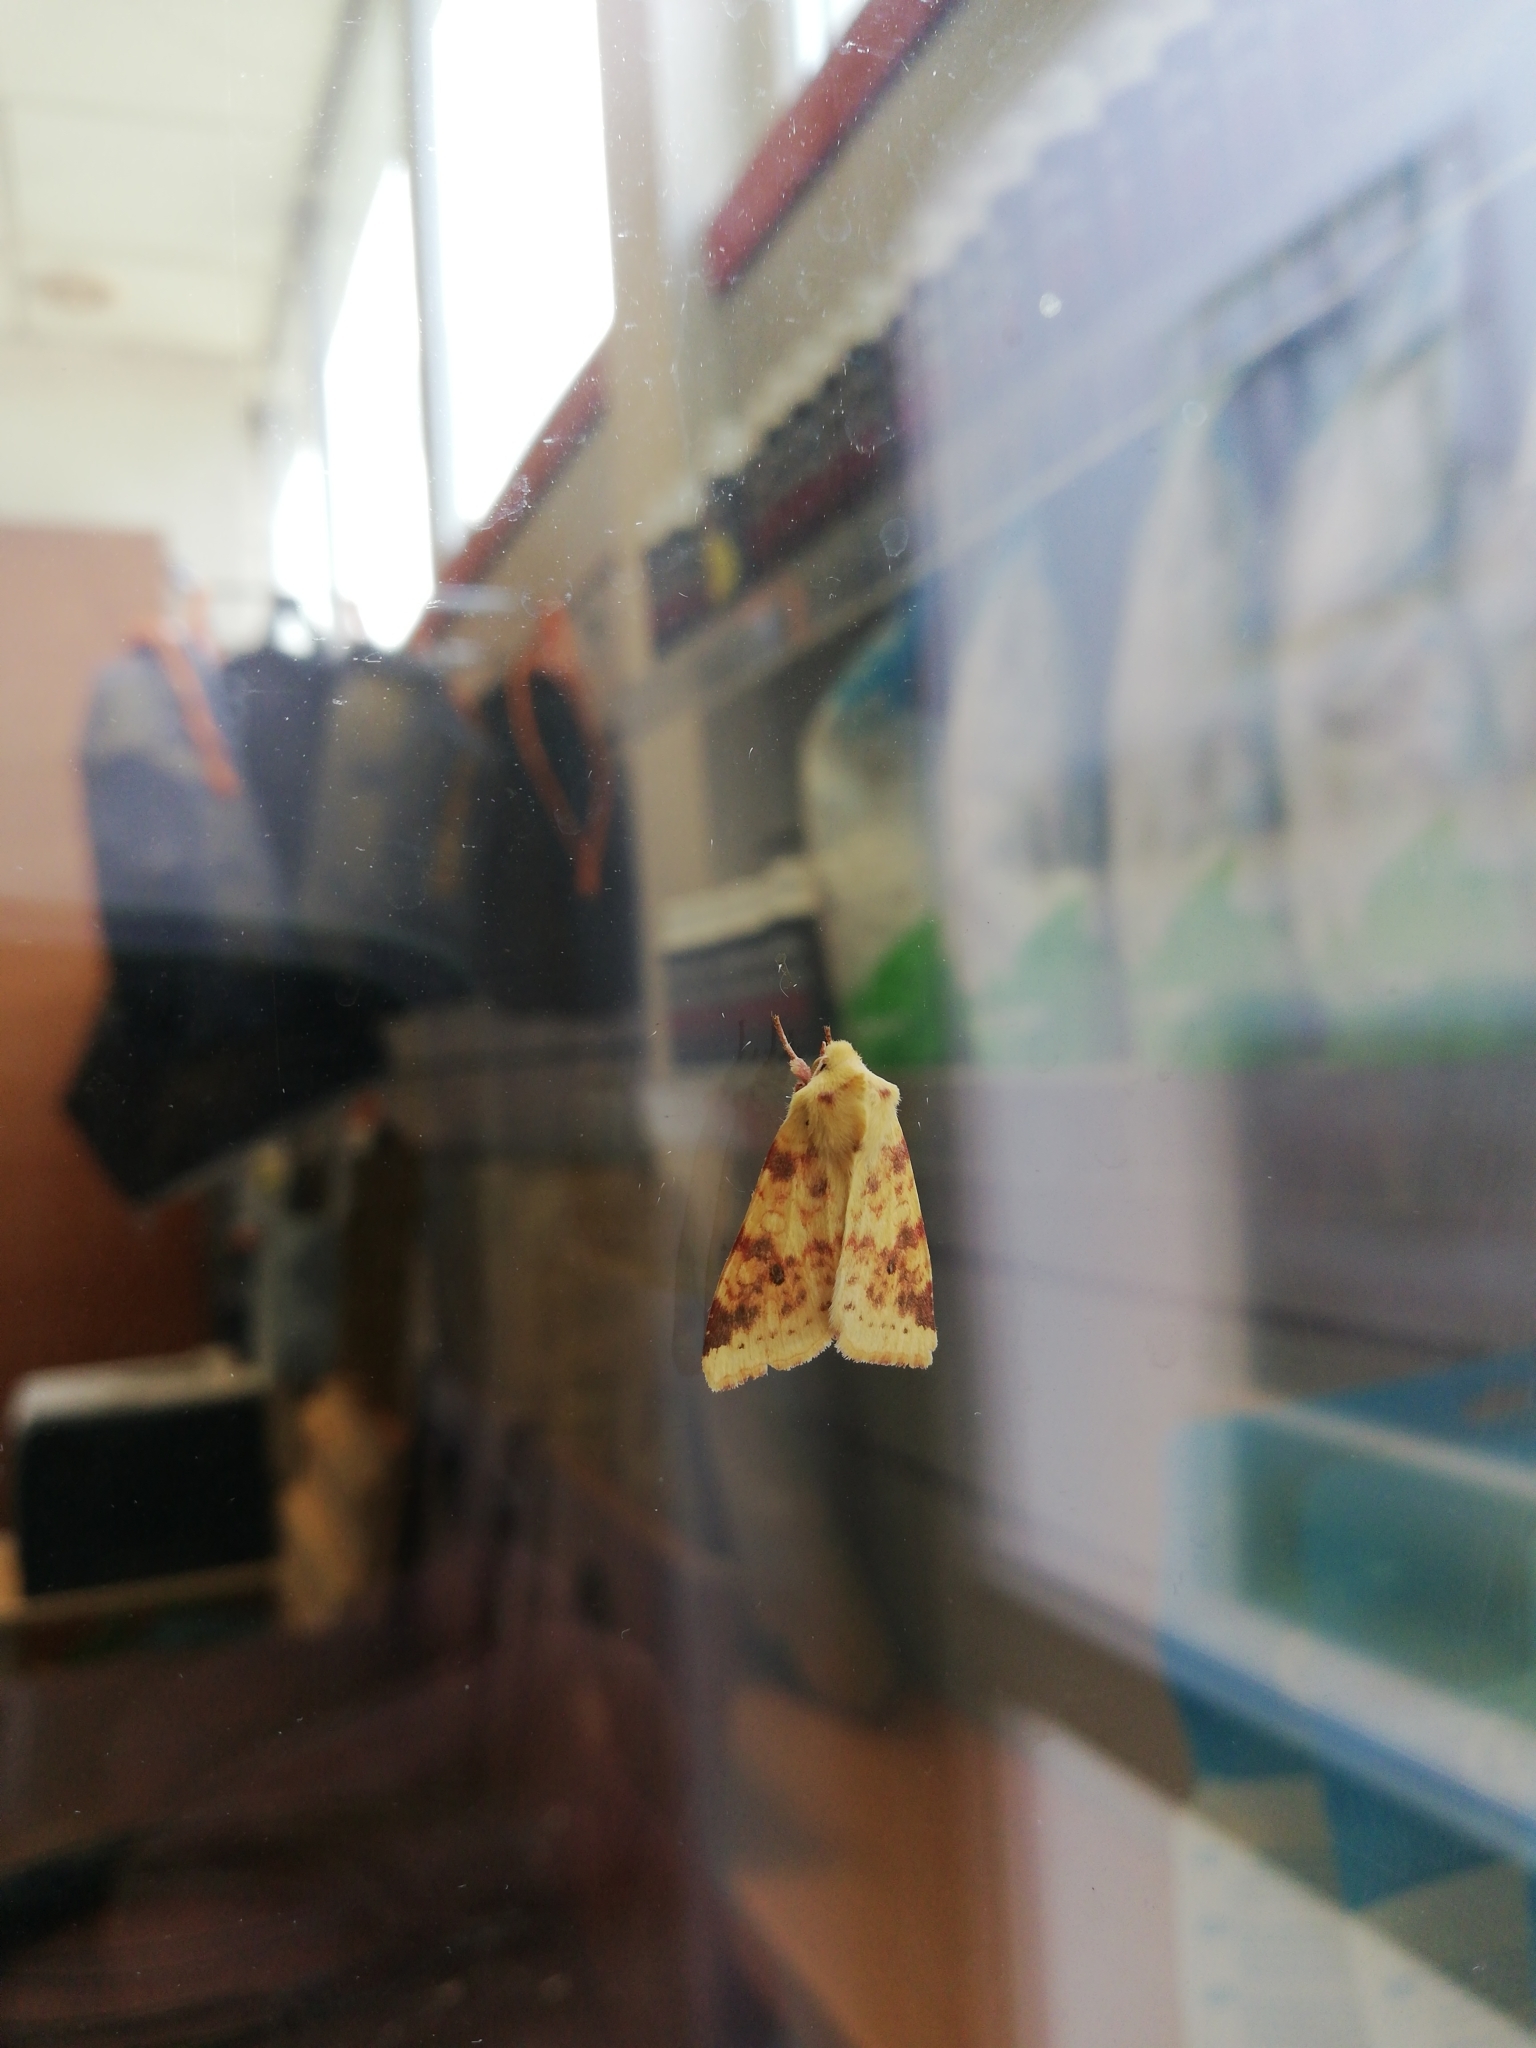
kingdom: Animalia
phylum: Arthropoda
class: Insecta
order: Lepidoptera
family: Noctuidae
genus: Xanthia
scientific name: Xanthia icteritia
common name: The sallow
